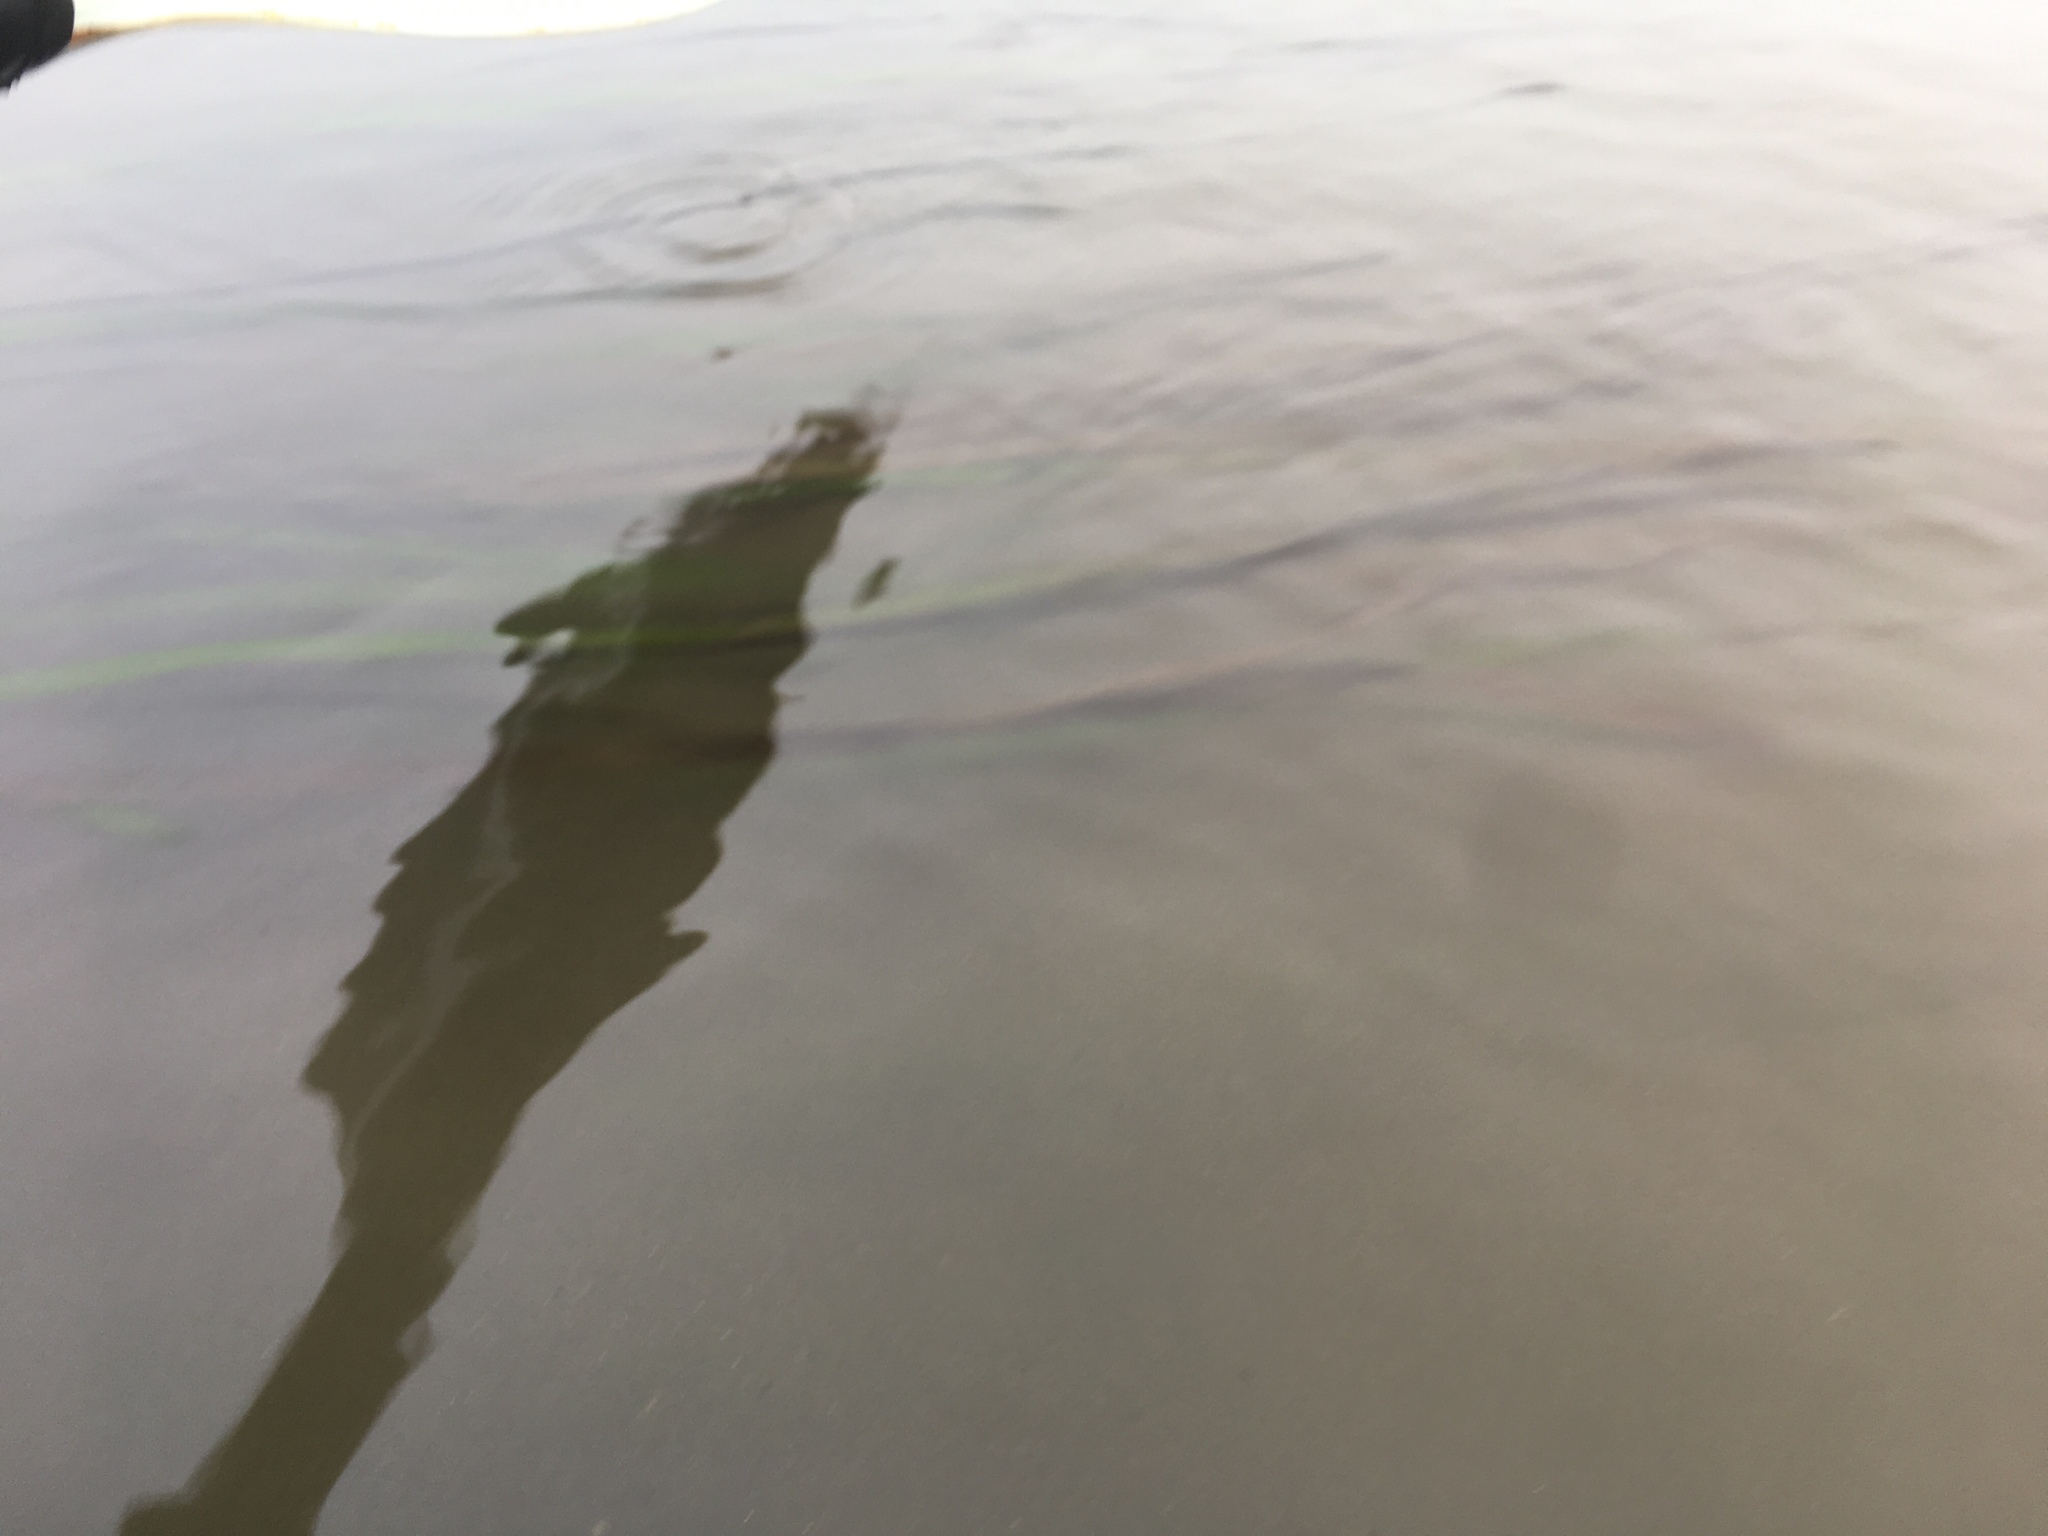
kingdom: Plantae
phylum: Tracheophyta
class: Liliopsida
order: Alismatales
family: Zosteraceae
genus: Zostera
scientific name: Zostera marina
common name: Eelgrass
